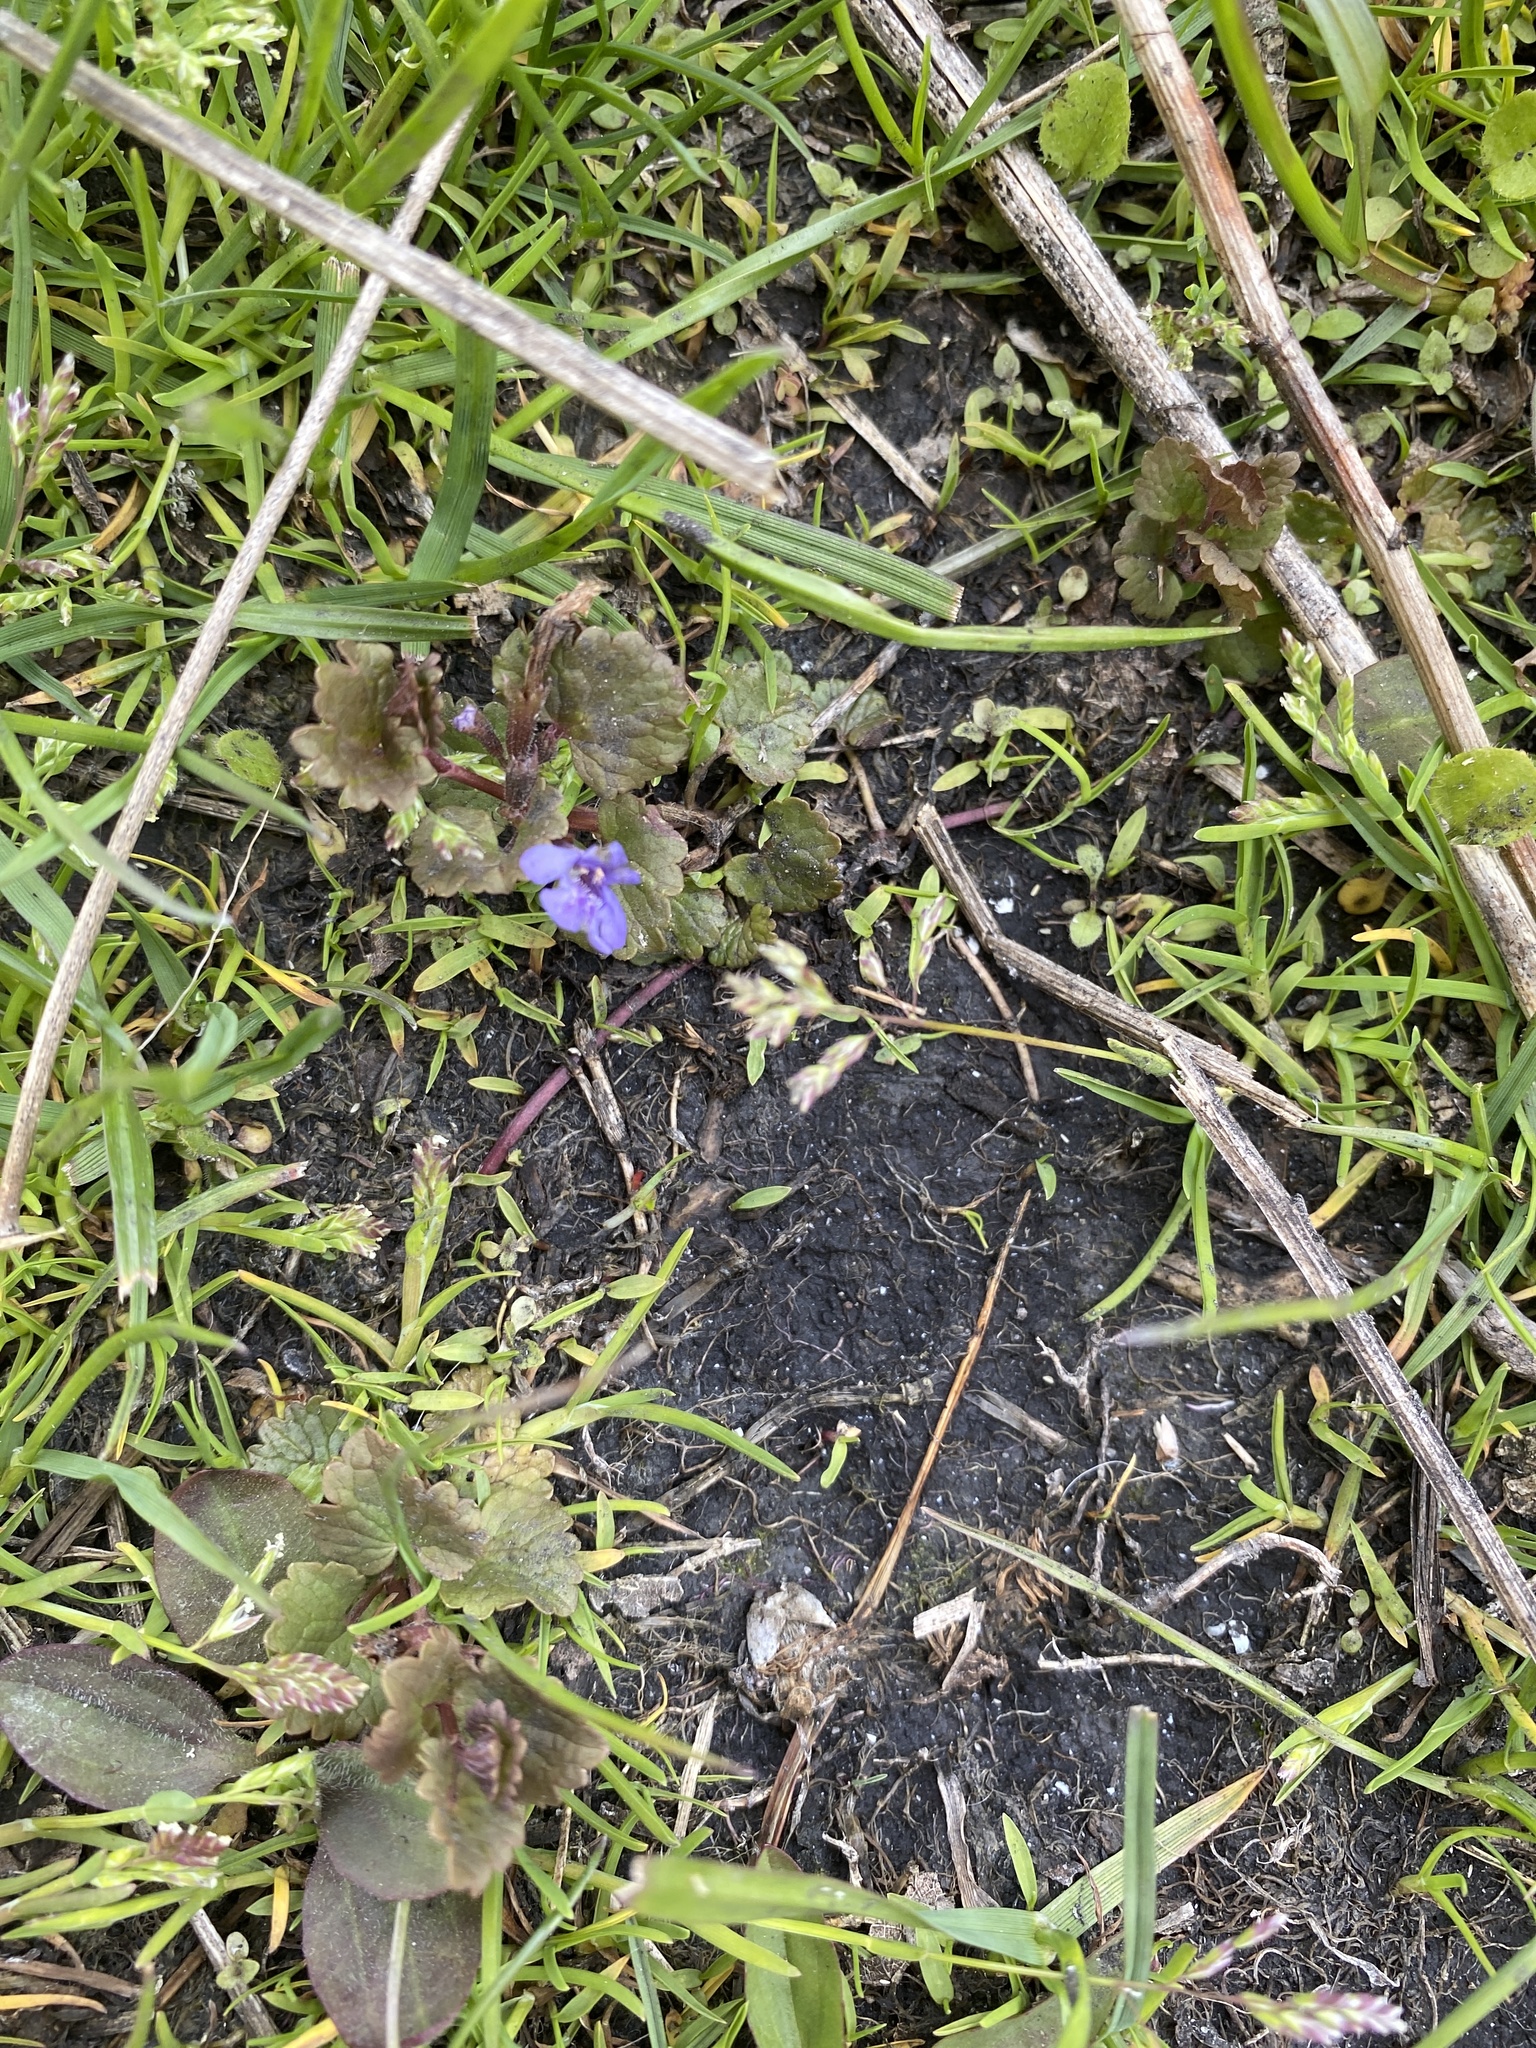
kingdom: Plantae
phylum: Tracheophyta
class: Magnoliopsida
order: Lamiales
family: Lamiaceae
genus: Glechoma
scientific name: Glechoma hederacea
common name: Ground ivy
